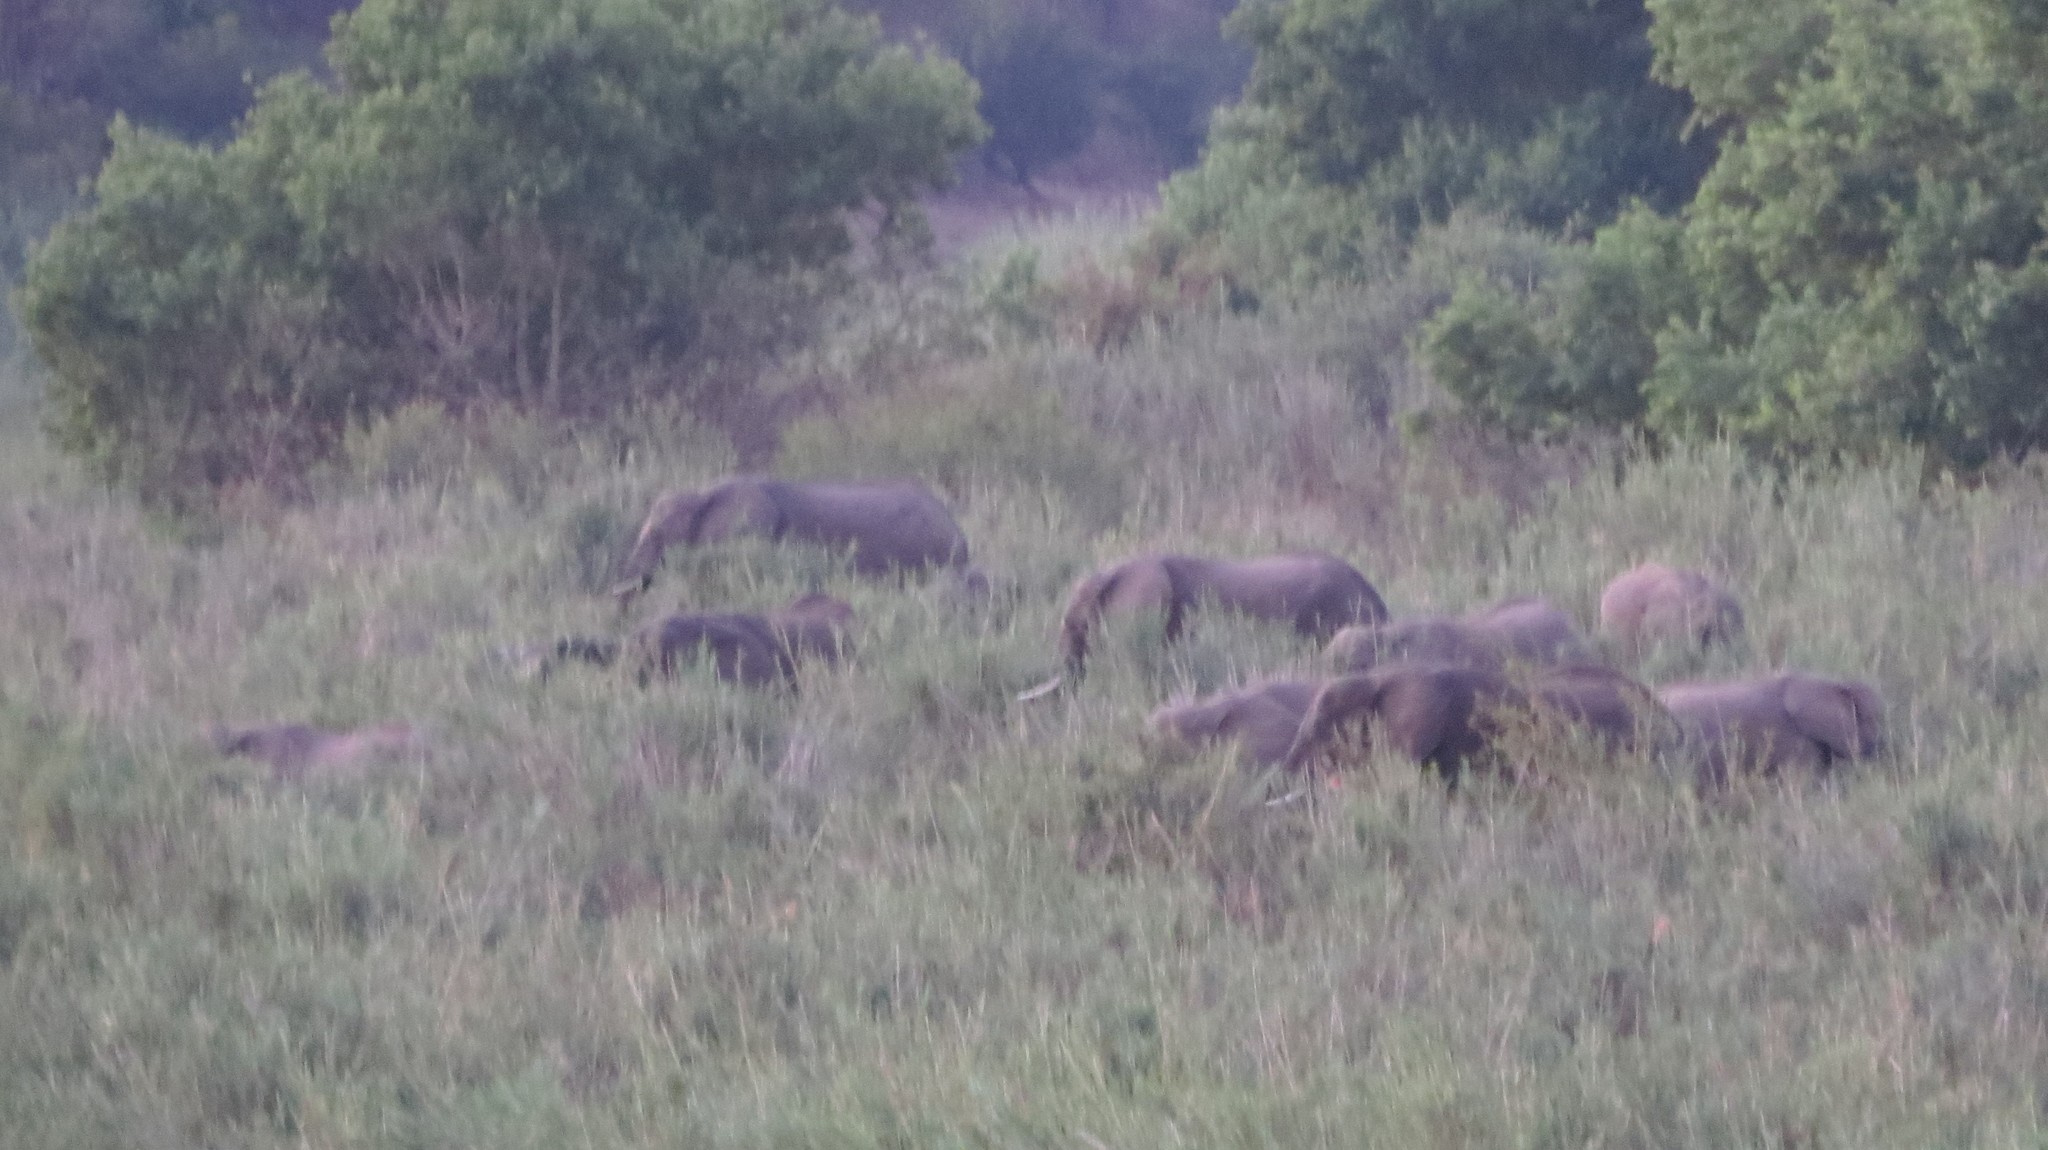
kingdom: Animalia
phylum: Chordata
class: Mammalia
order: Proboscidea
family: Elephantidae
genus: Loxodonta
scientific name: Loxodonta africana
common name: African elephant
